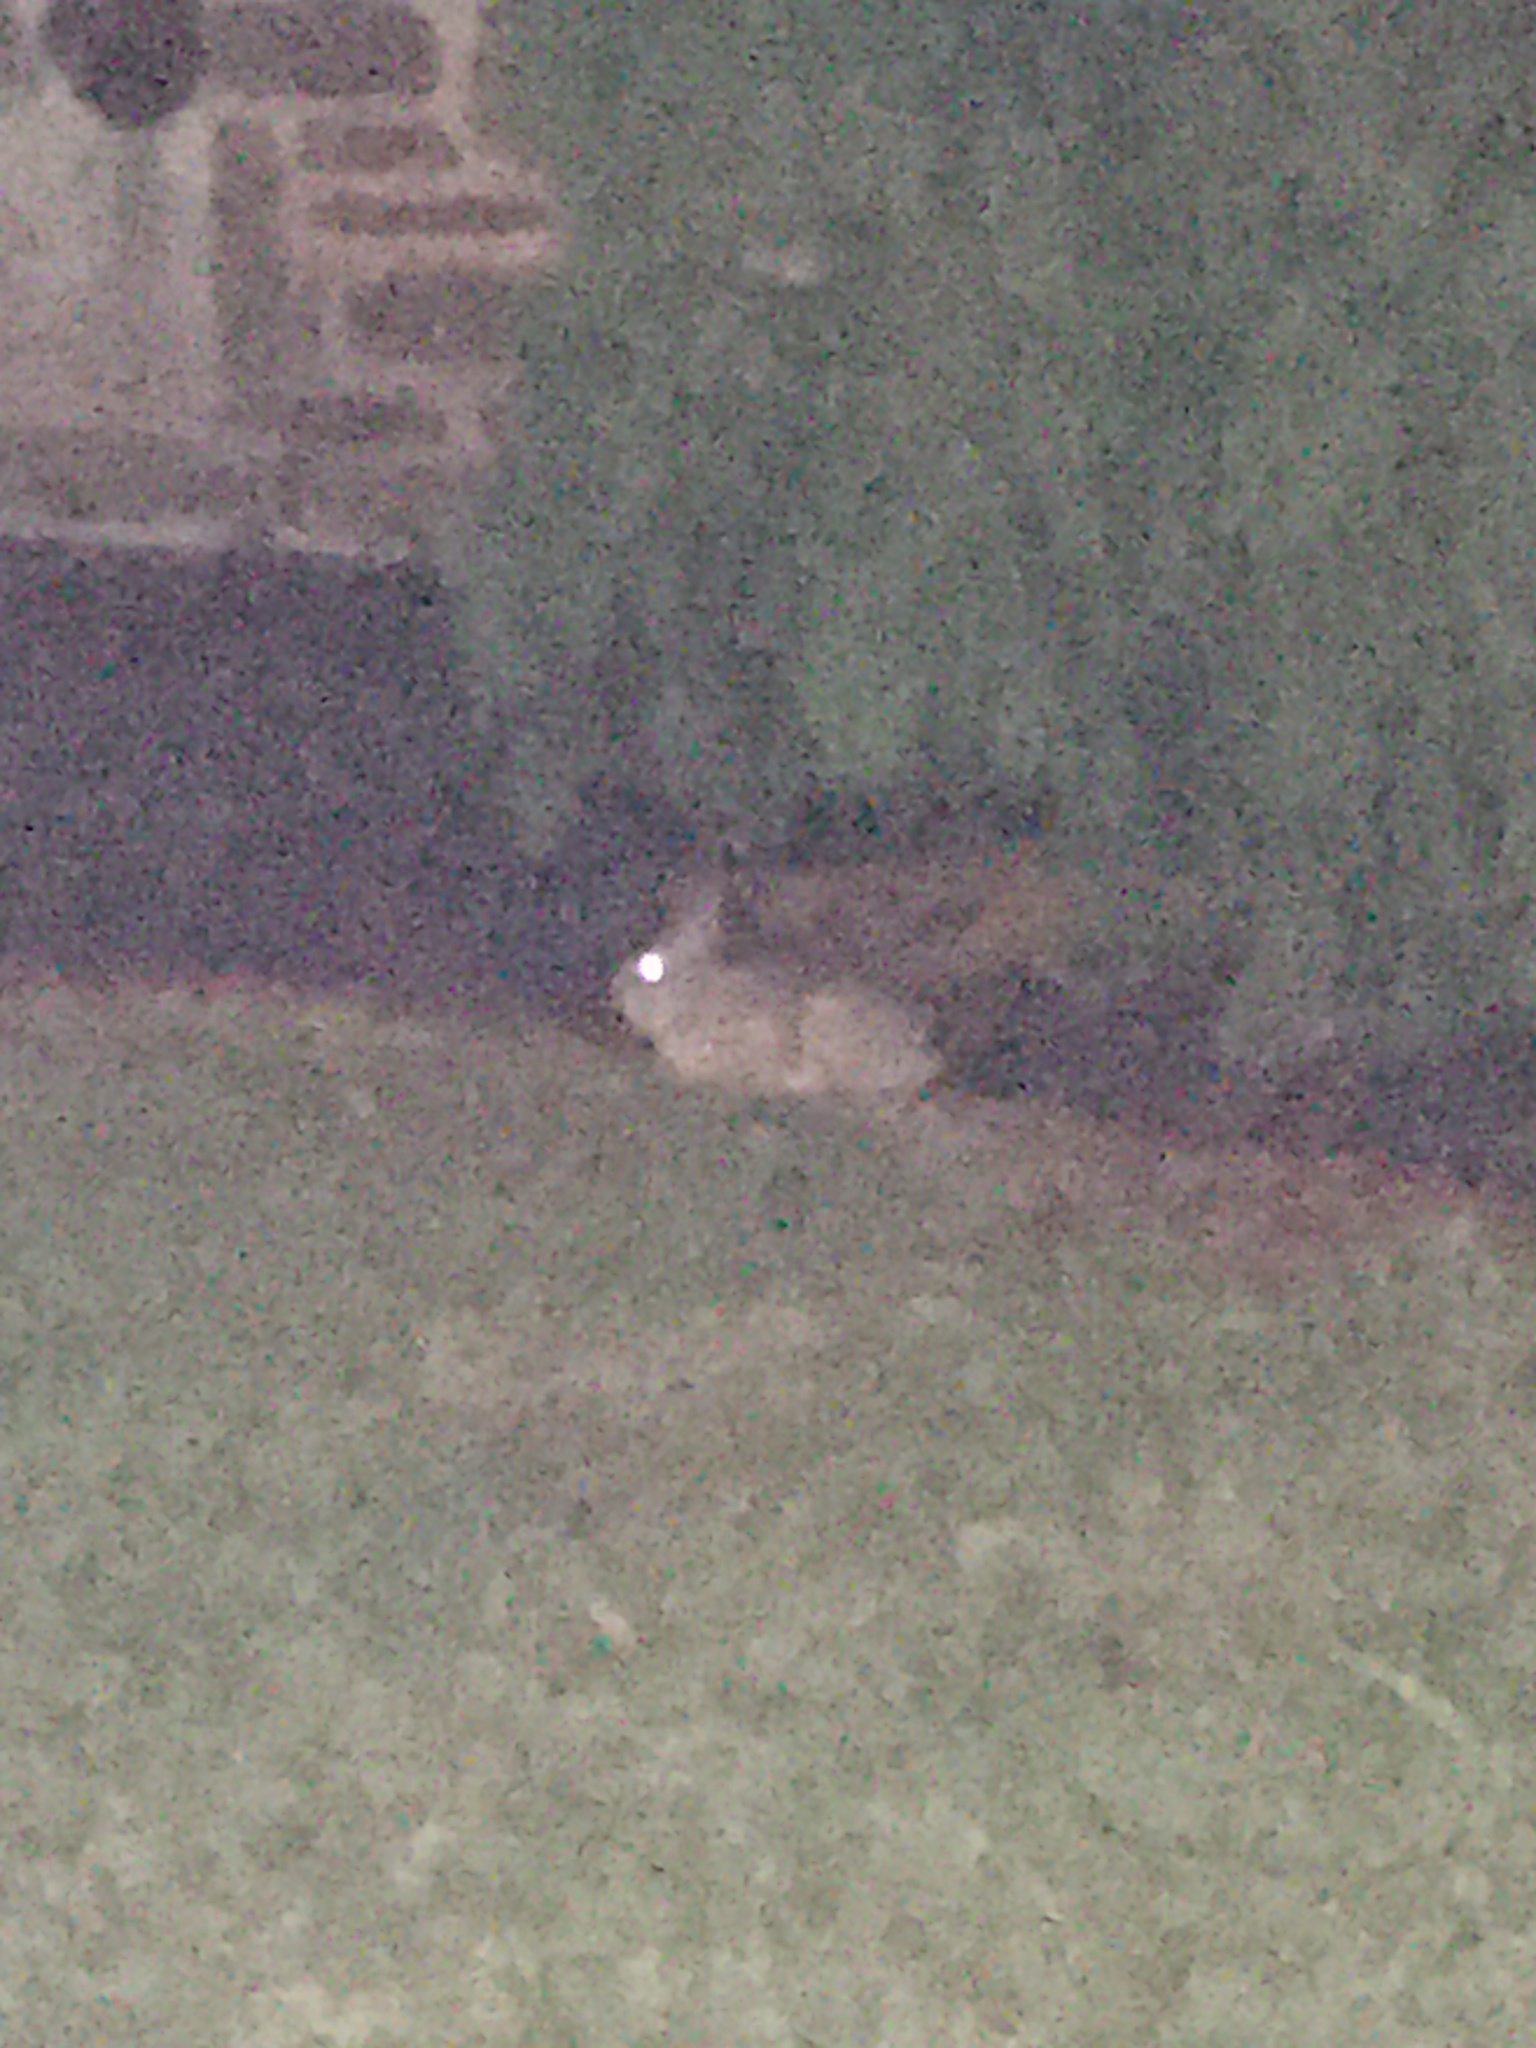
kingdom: Animalia
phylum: Chordata
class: Mammalia
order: Lagomorpha
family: Leporidae
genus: Sylvilagus
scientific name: Sylvilagus floridanus
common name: Eastern cottontail
